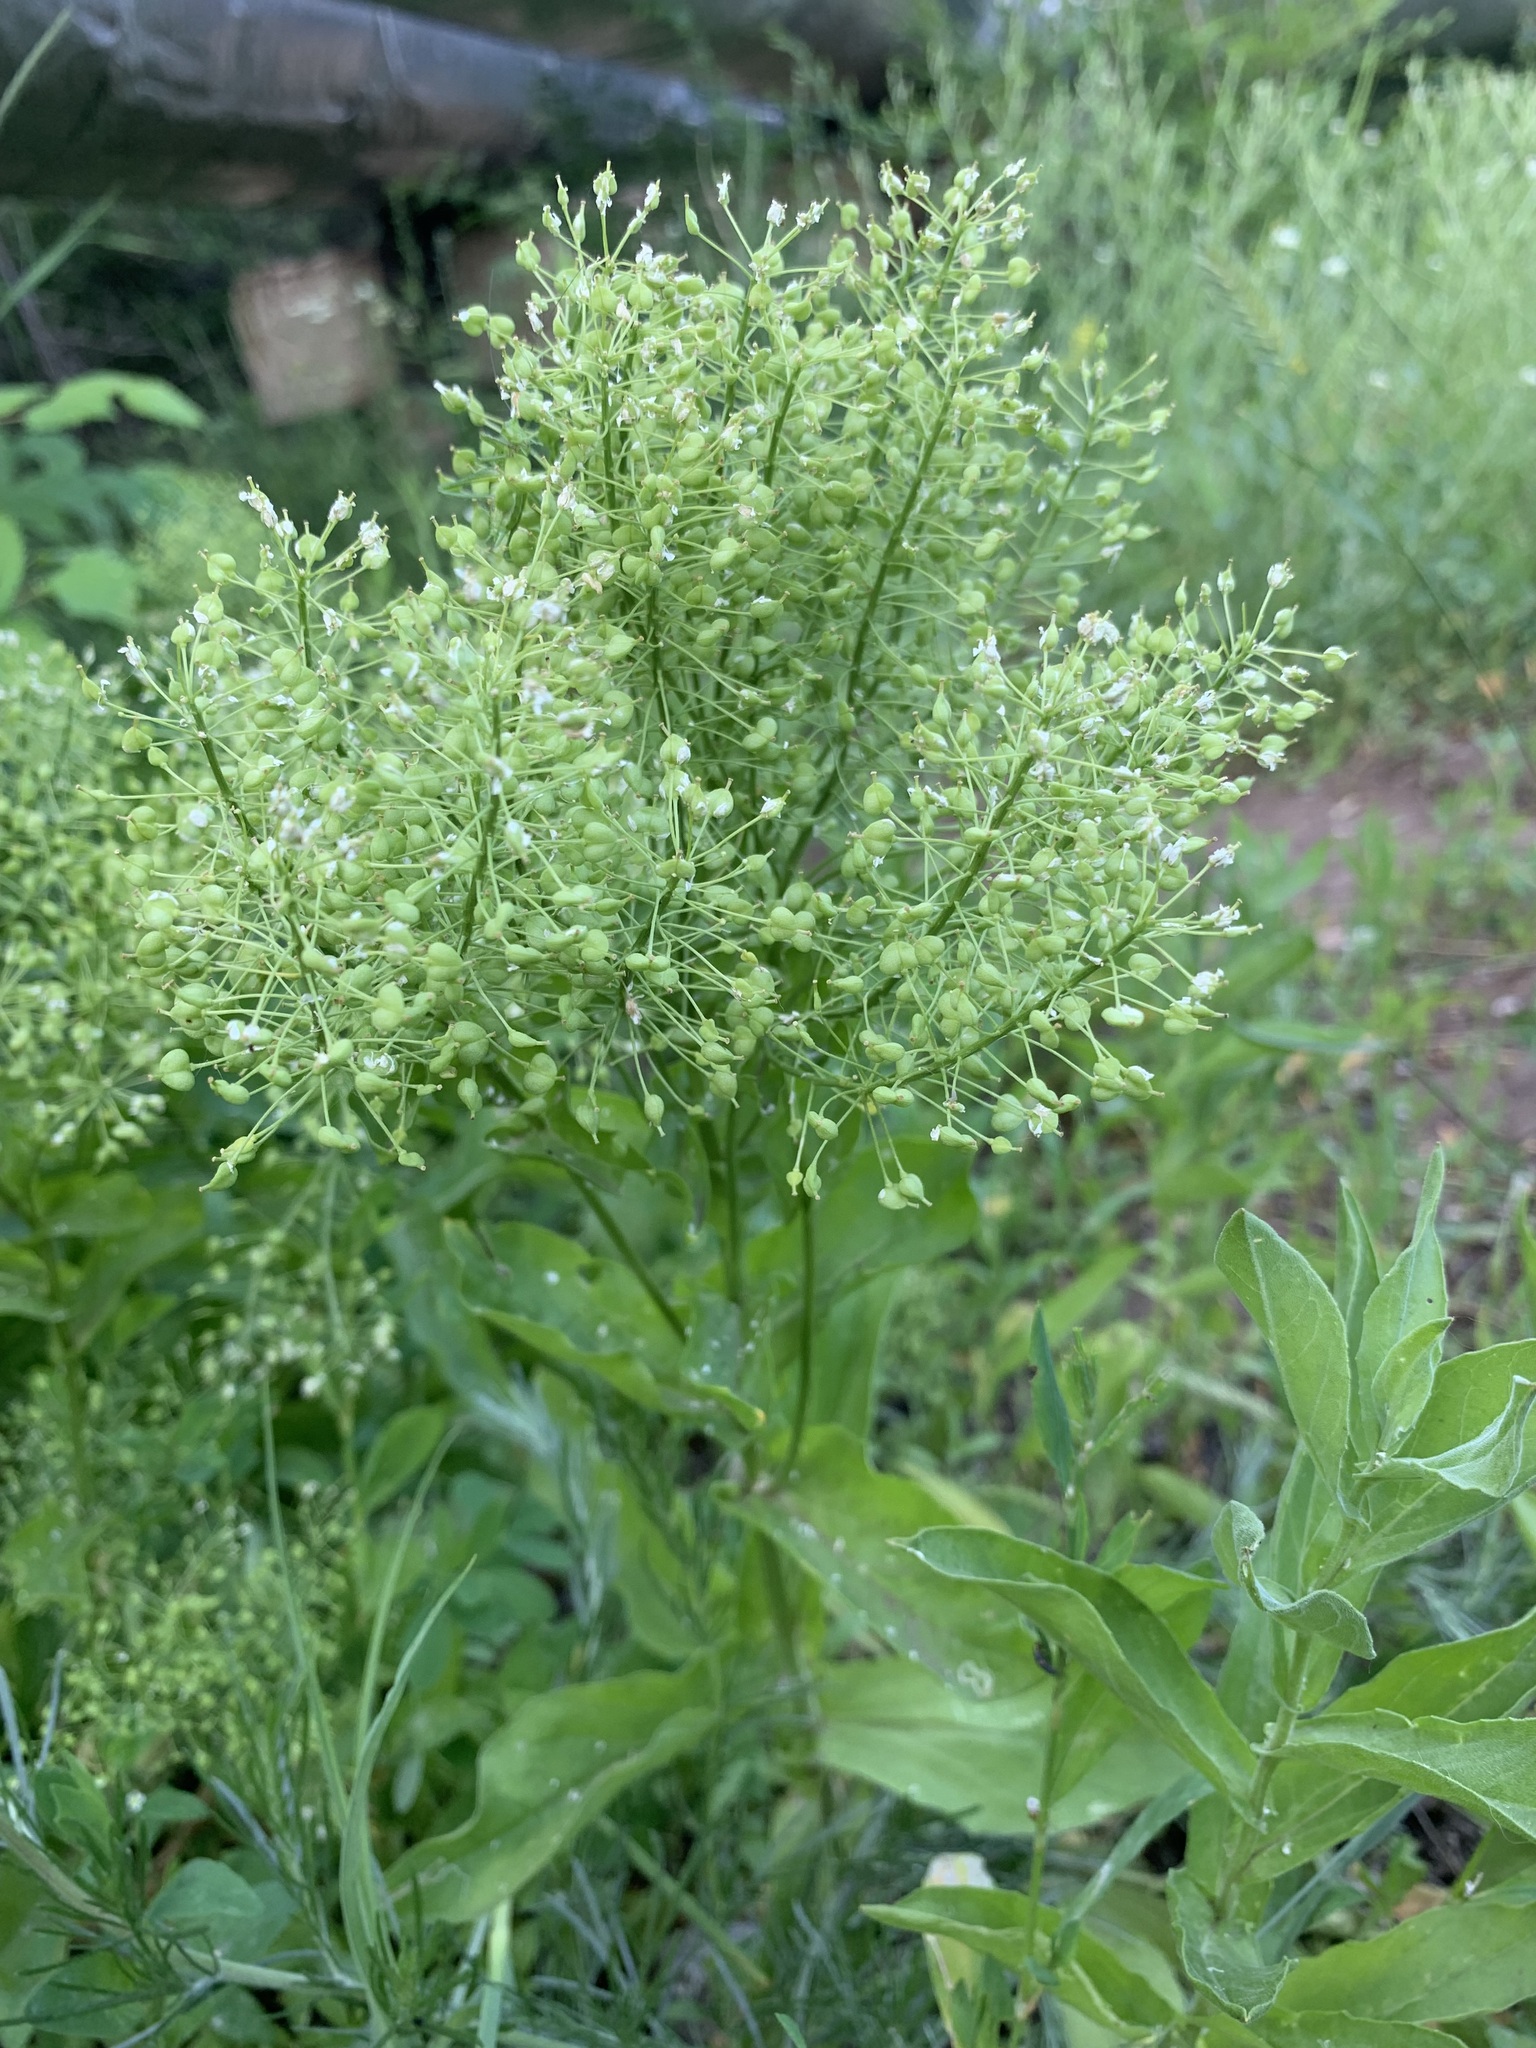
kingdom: Plantae
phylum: Tracheophyta
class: Magnoliopsida
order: Brassicales
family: Brassicaceae
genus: Lepidium
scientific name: Lepidium draba
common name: Hoary cress
